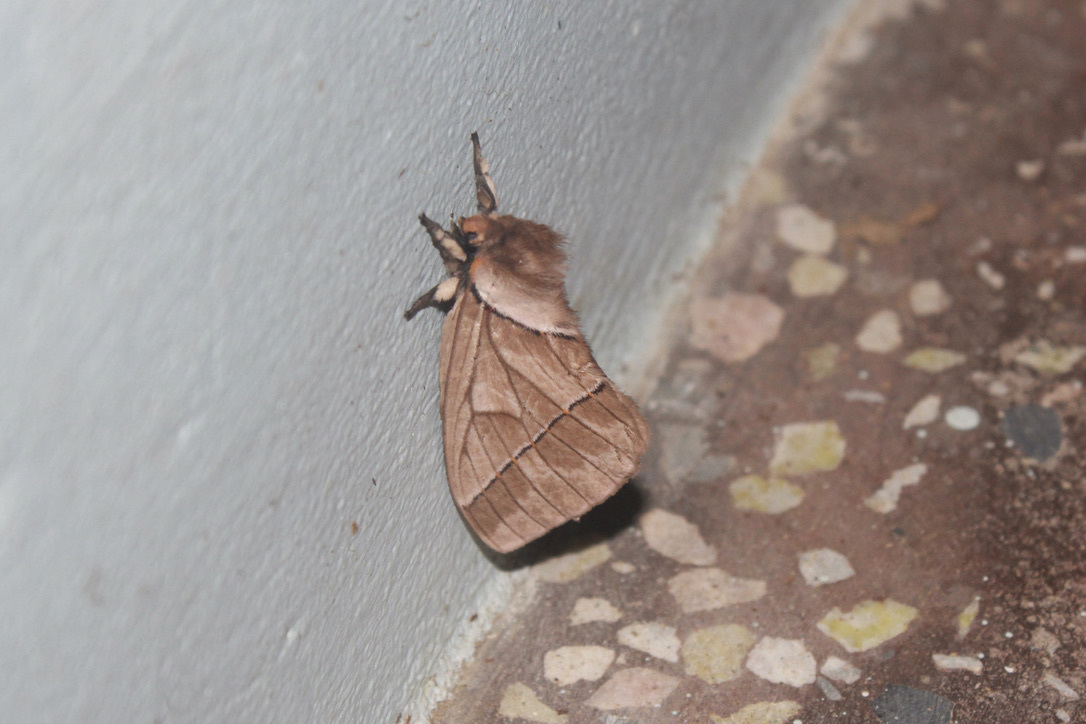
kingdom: Animalia
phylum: Arthropoda
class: Insecta
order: Lepidoptera
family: Saturniidae
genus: Pseudodirphia
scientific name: Pseudodirphia obliqua
